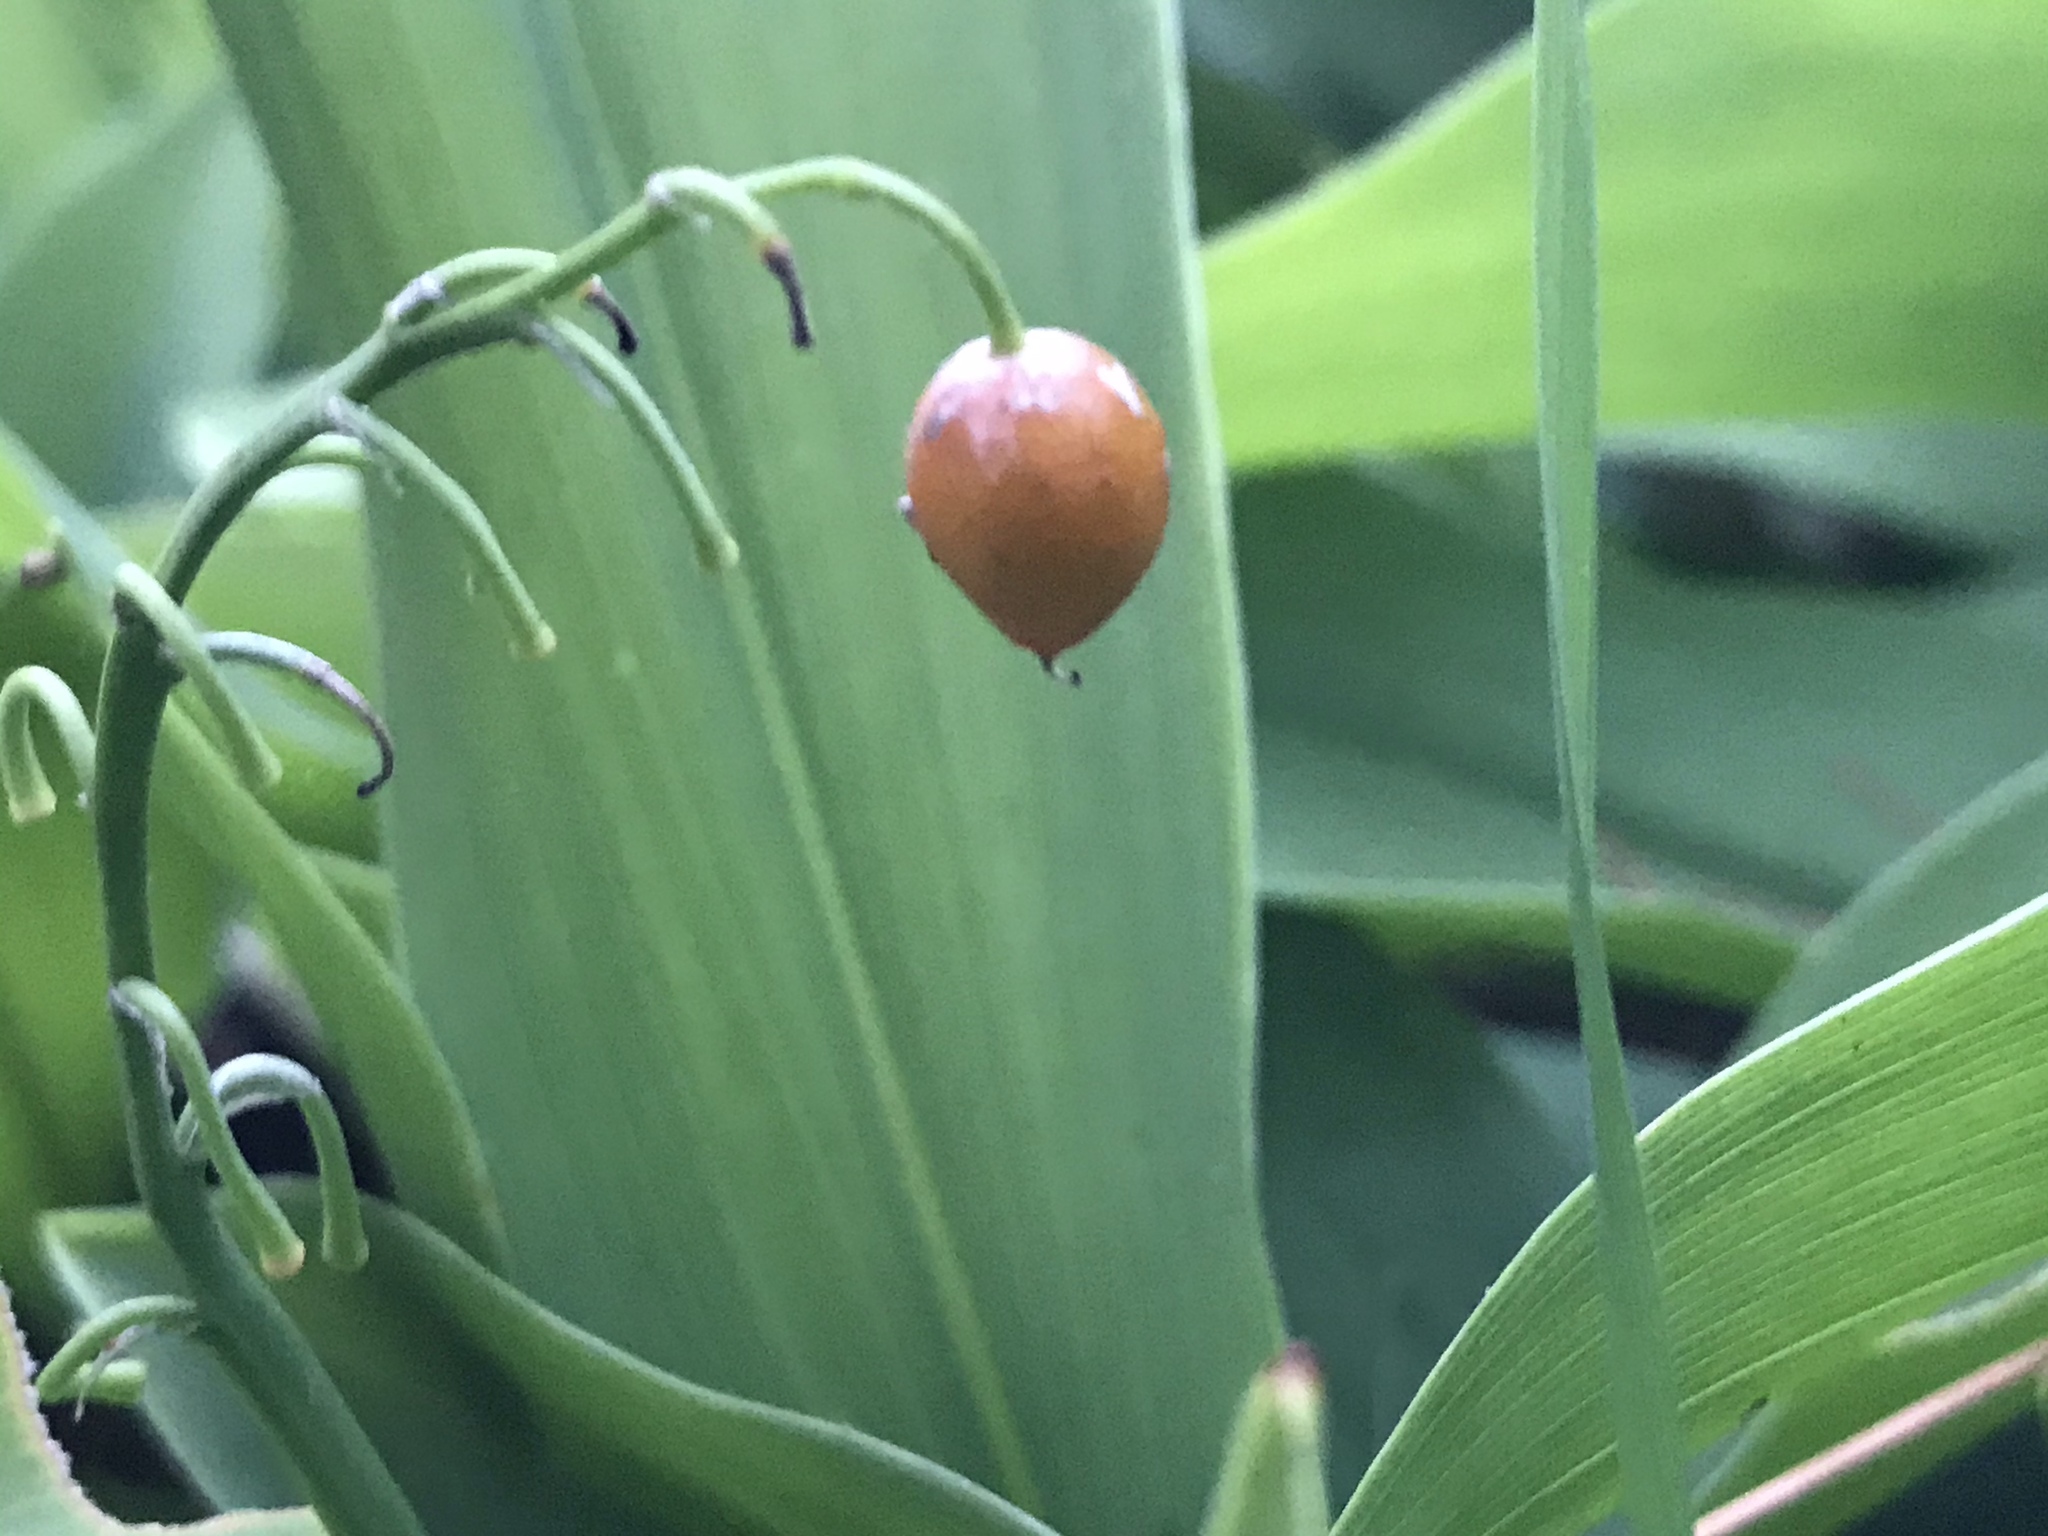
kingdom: Plantae
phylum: Tracheophyta
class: Liliopsida
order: Asparagales
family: Asparagaceae
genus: Convallaria
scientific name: Convallaria majalis
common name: Lily-of-the-valley
